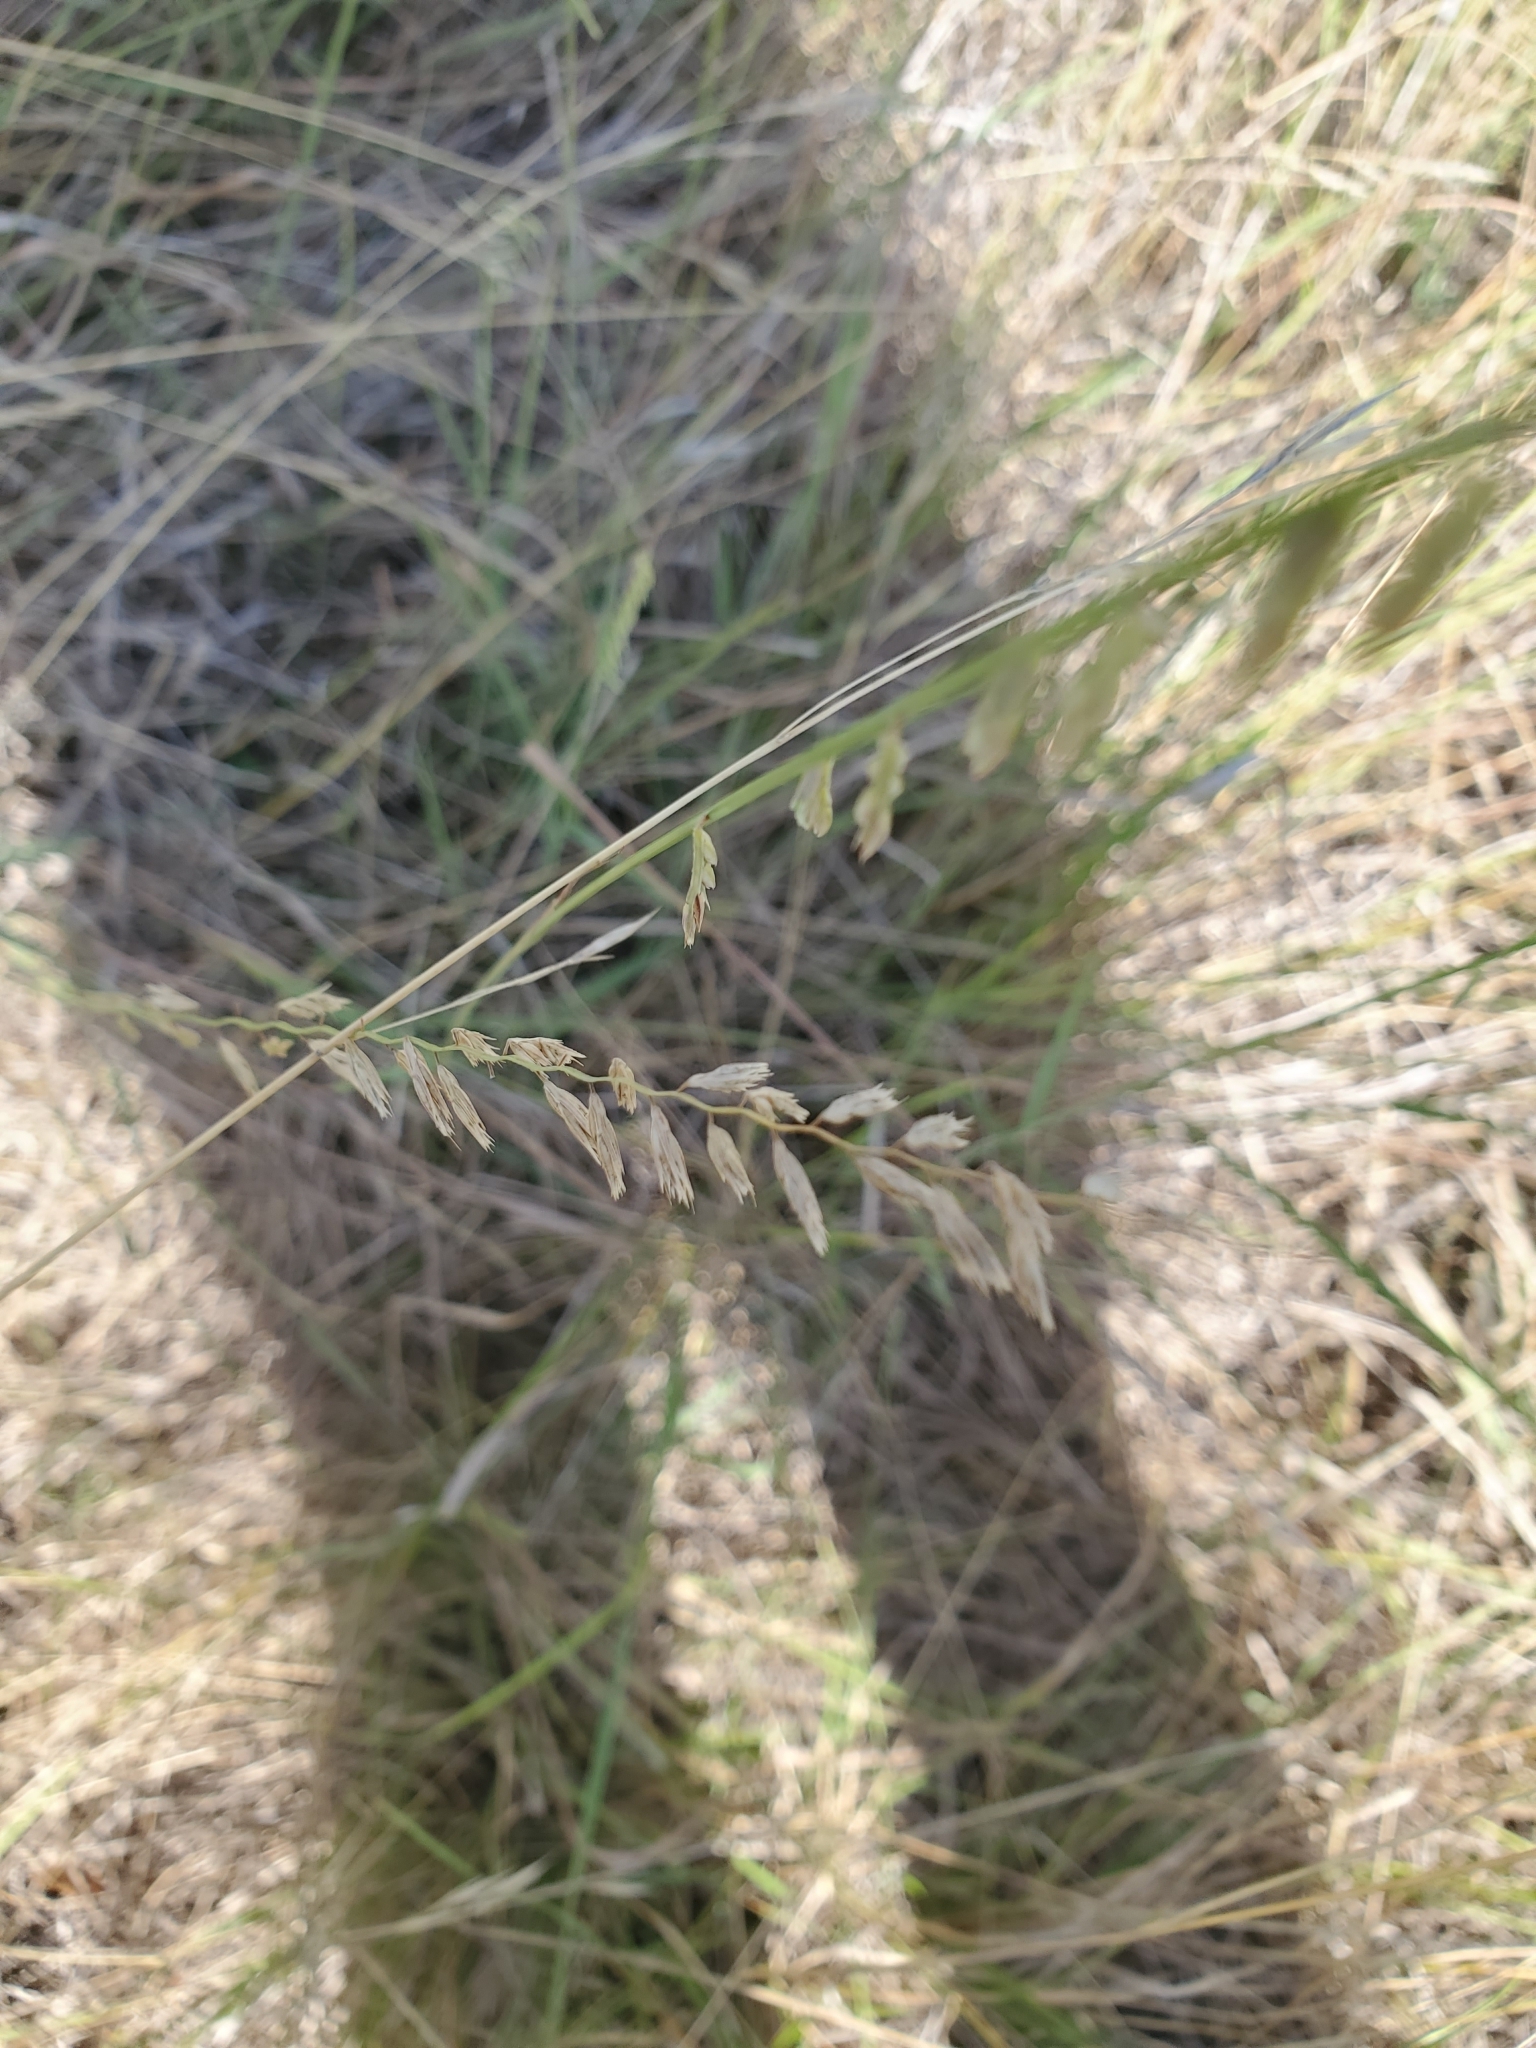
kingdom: Plantae
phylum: Tracheophyta
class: Liliopsida
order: Poales
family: Poaceae
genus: Bouteloua
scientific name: Bouteloua curtipendula
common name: Side-oats grama
